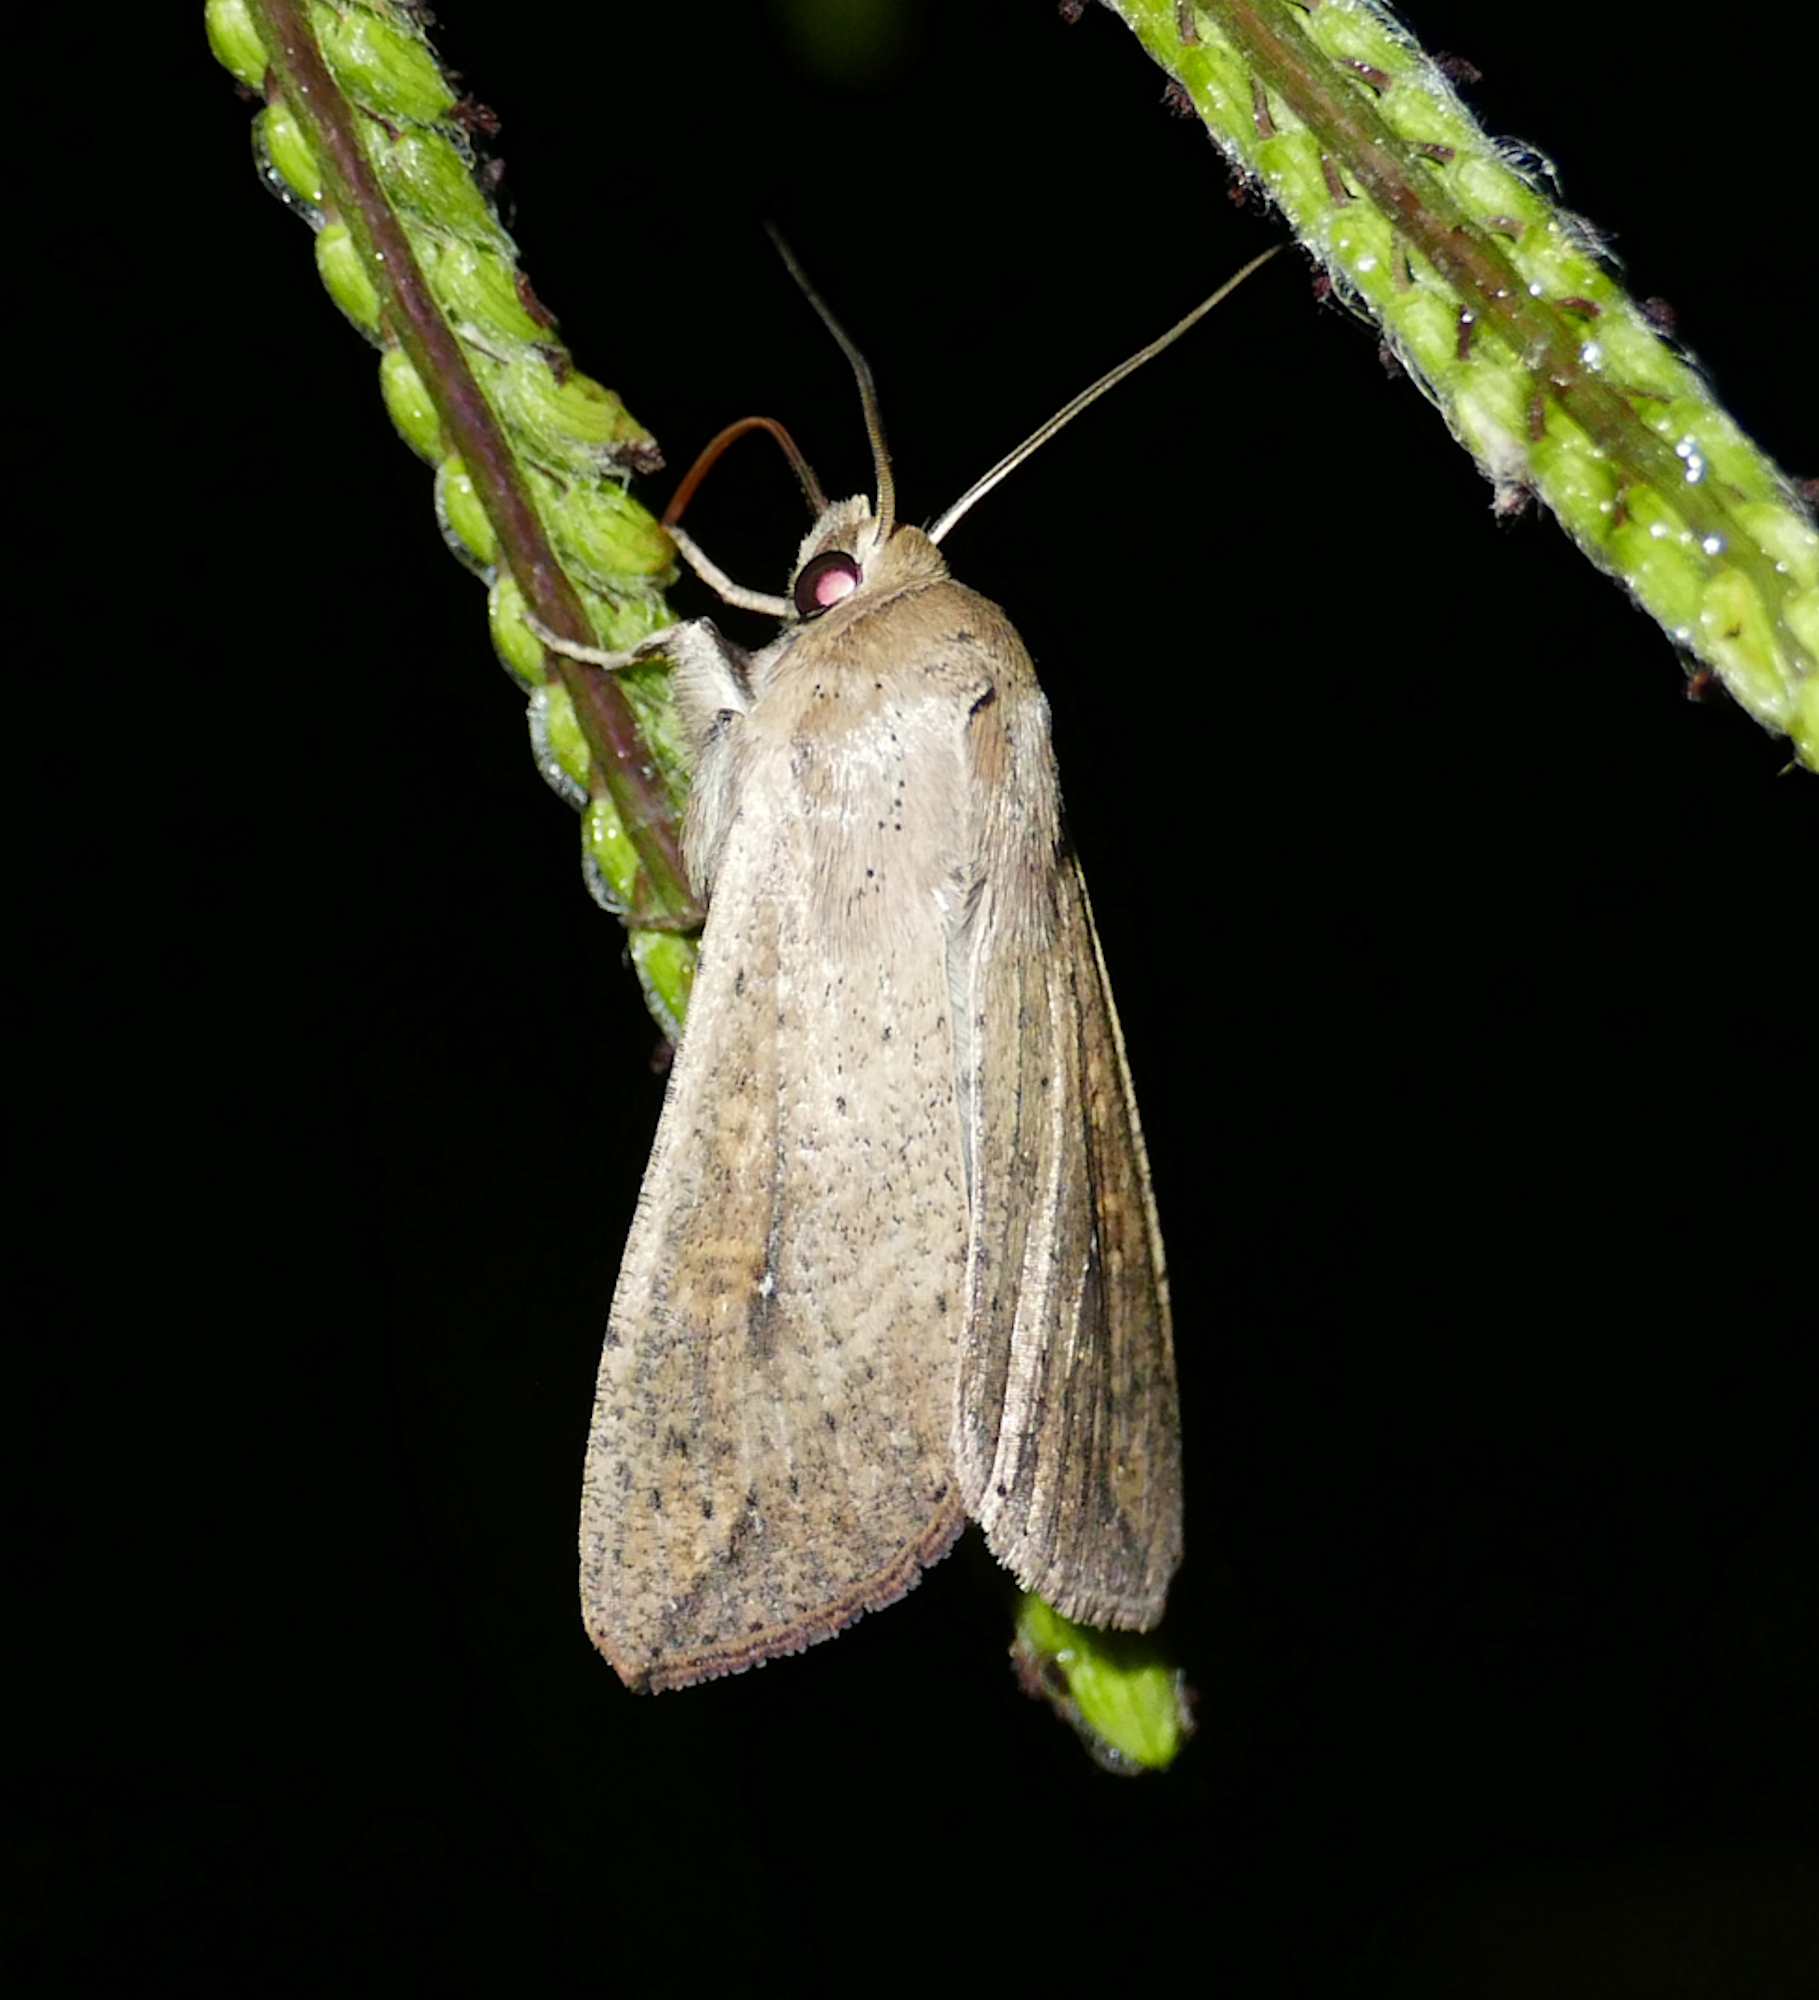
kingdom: Animalia
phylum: Arthropoda
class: Insecta
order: Lepidoptera
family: Noctuidae
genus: Mythimna
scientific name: Mythimna unipuncta
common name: White-speck
